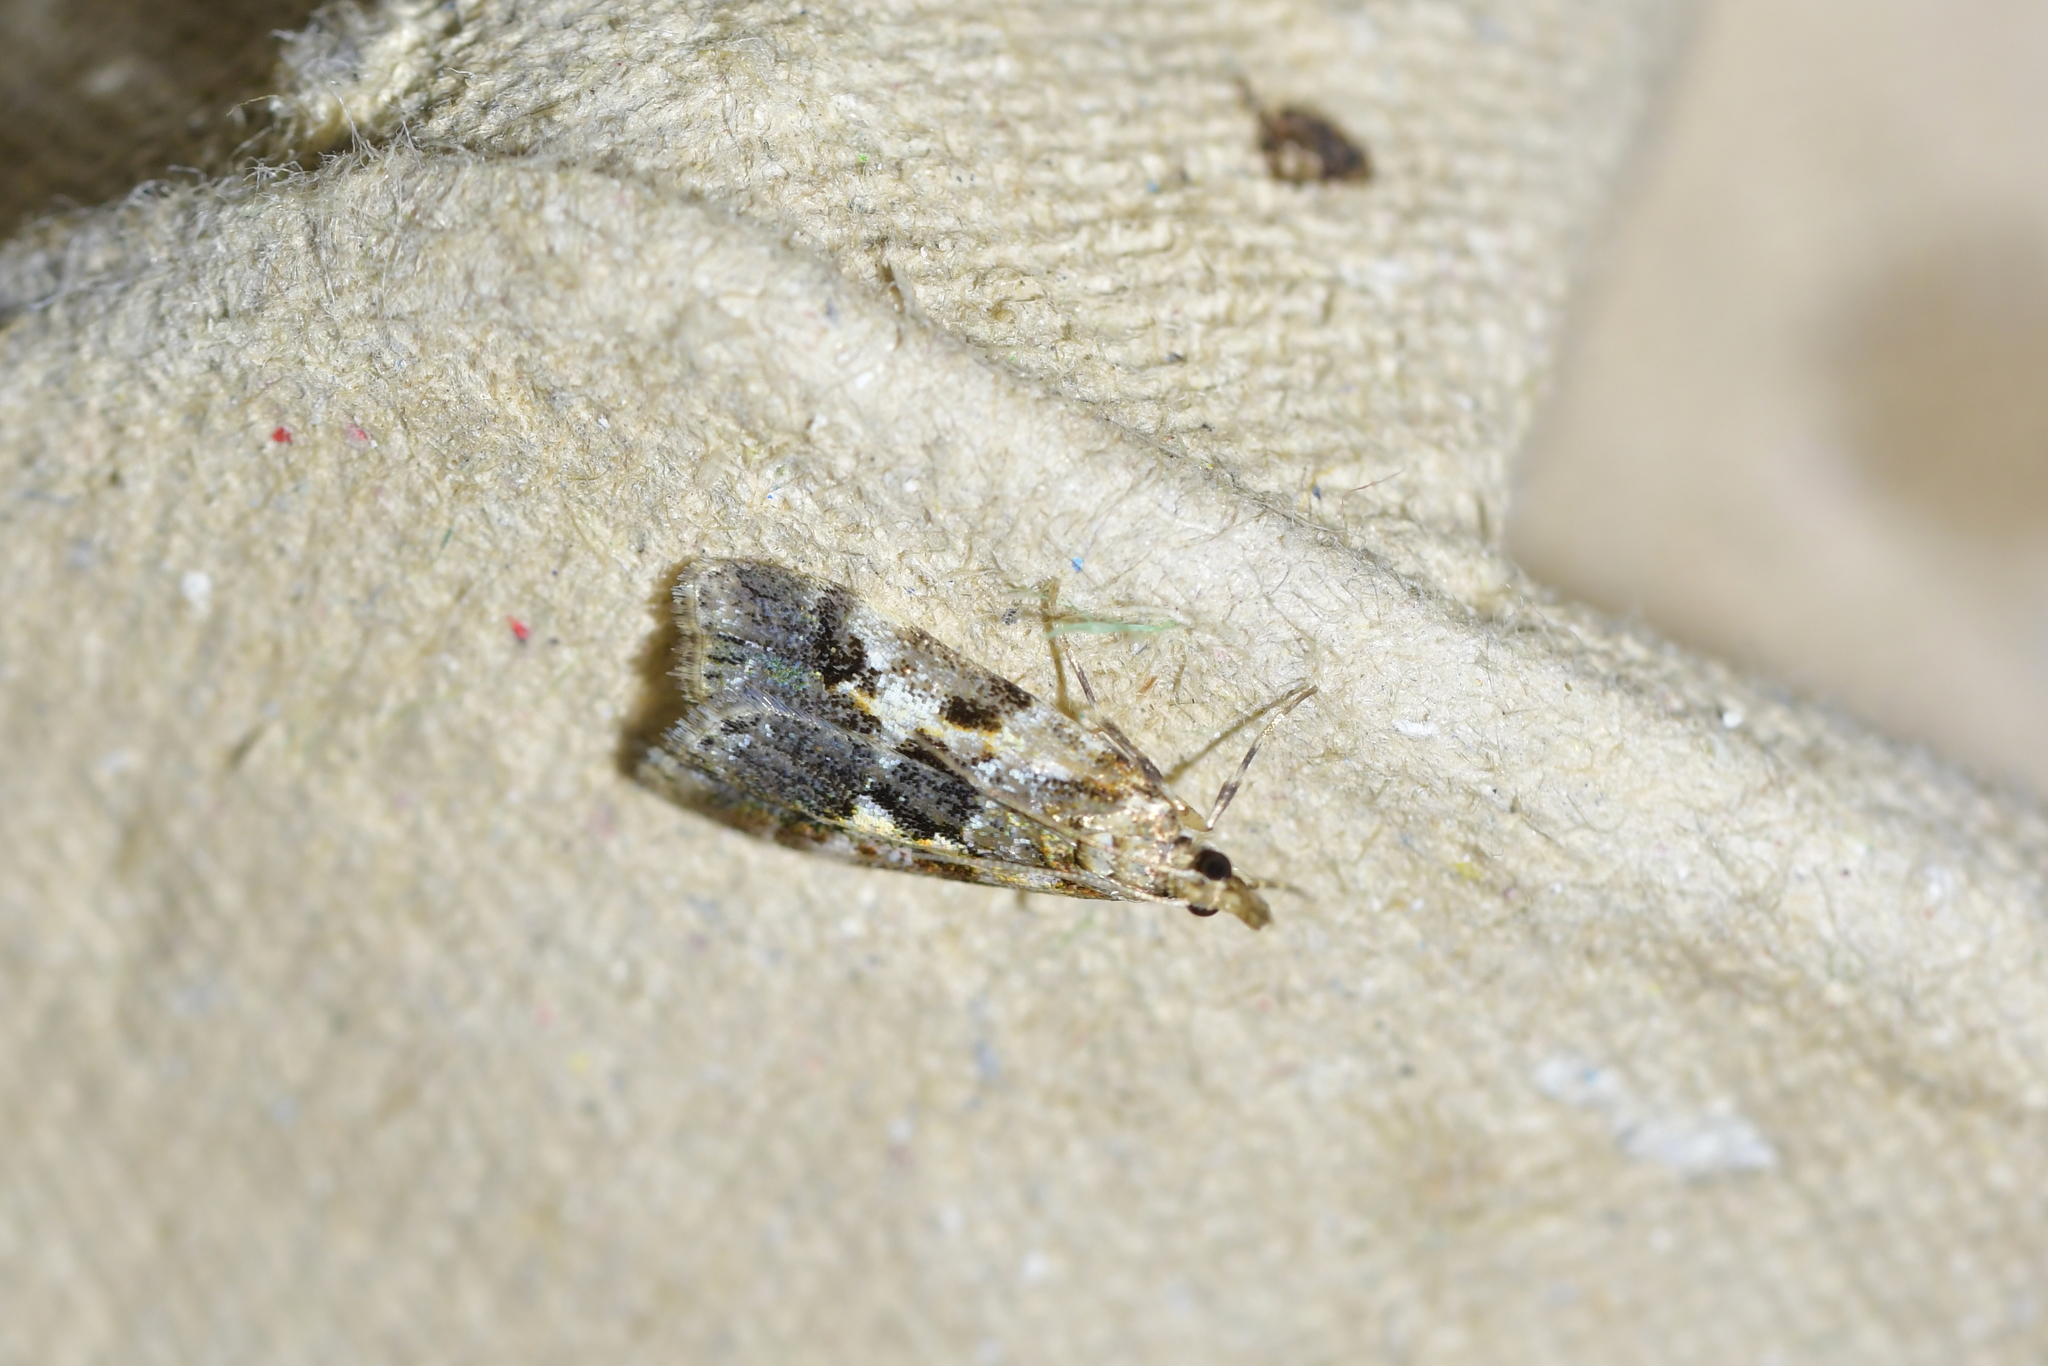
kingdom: Animalia
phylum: Arthropoda
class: Insecta
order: Lepidoptera
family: Crambidae
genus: Eudonia
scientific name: Eudonia characta
